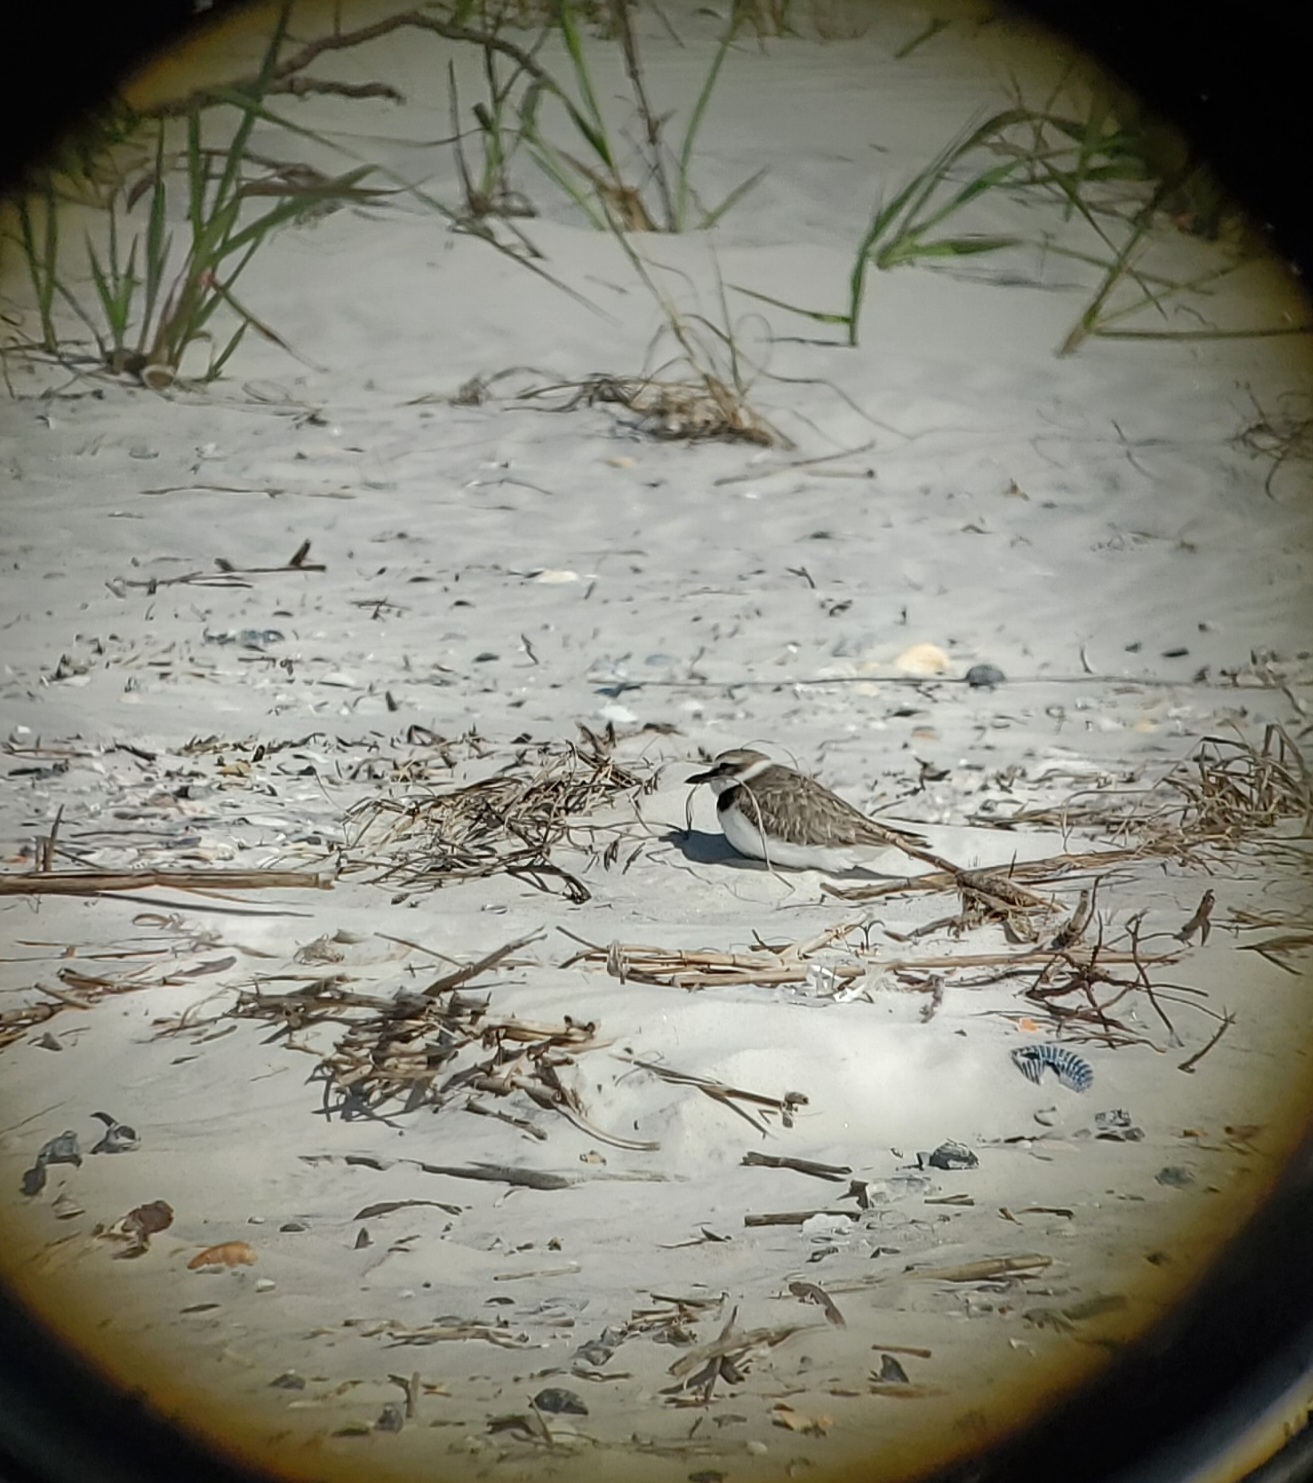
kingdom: Animalia
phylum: Chordata
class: Aves
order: Charadriiformes
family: Charadriidae
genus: Anarhynchus
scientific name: Anarhynchus
